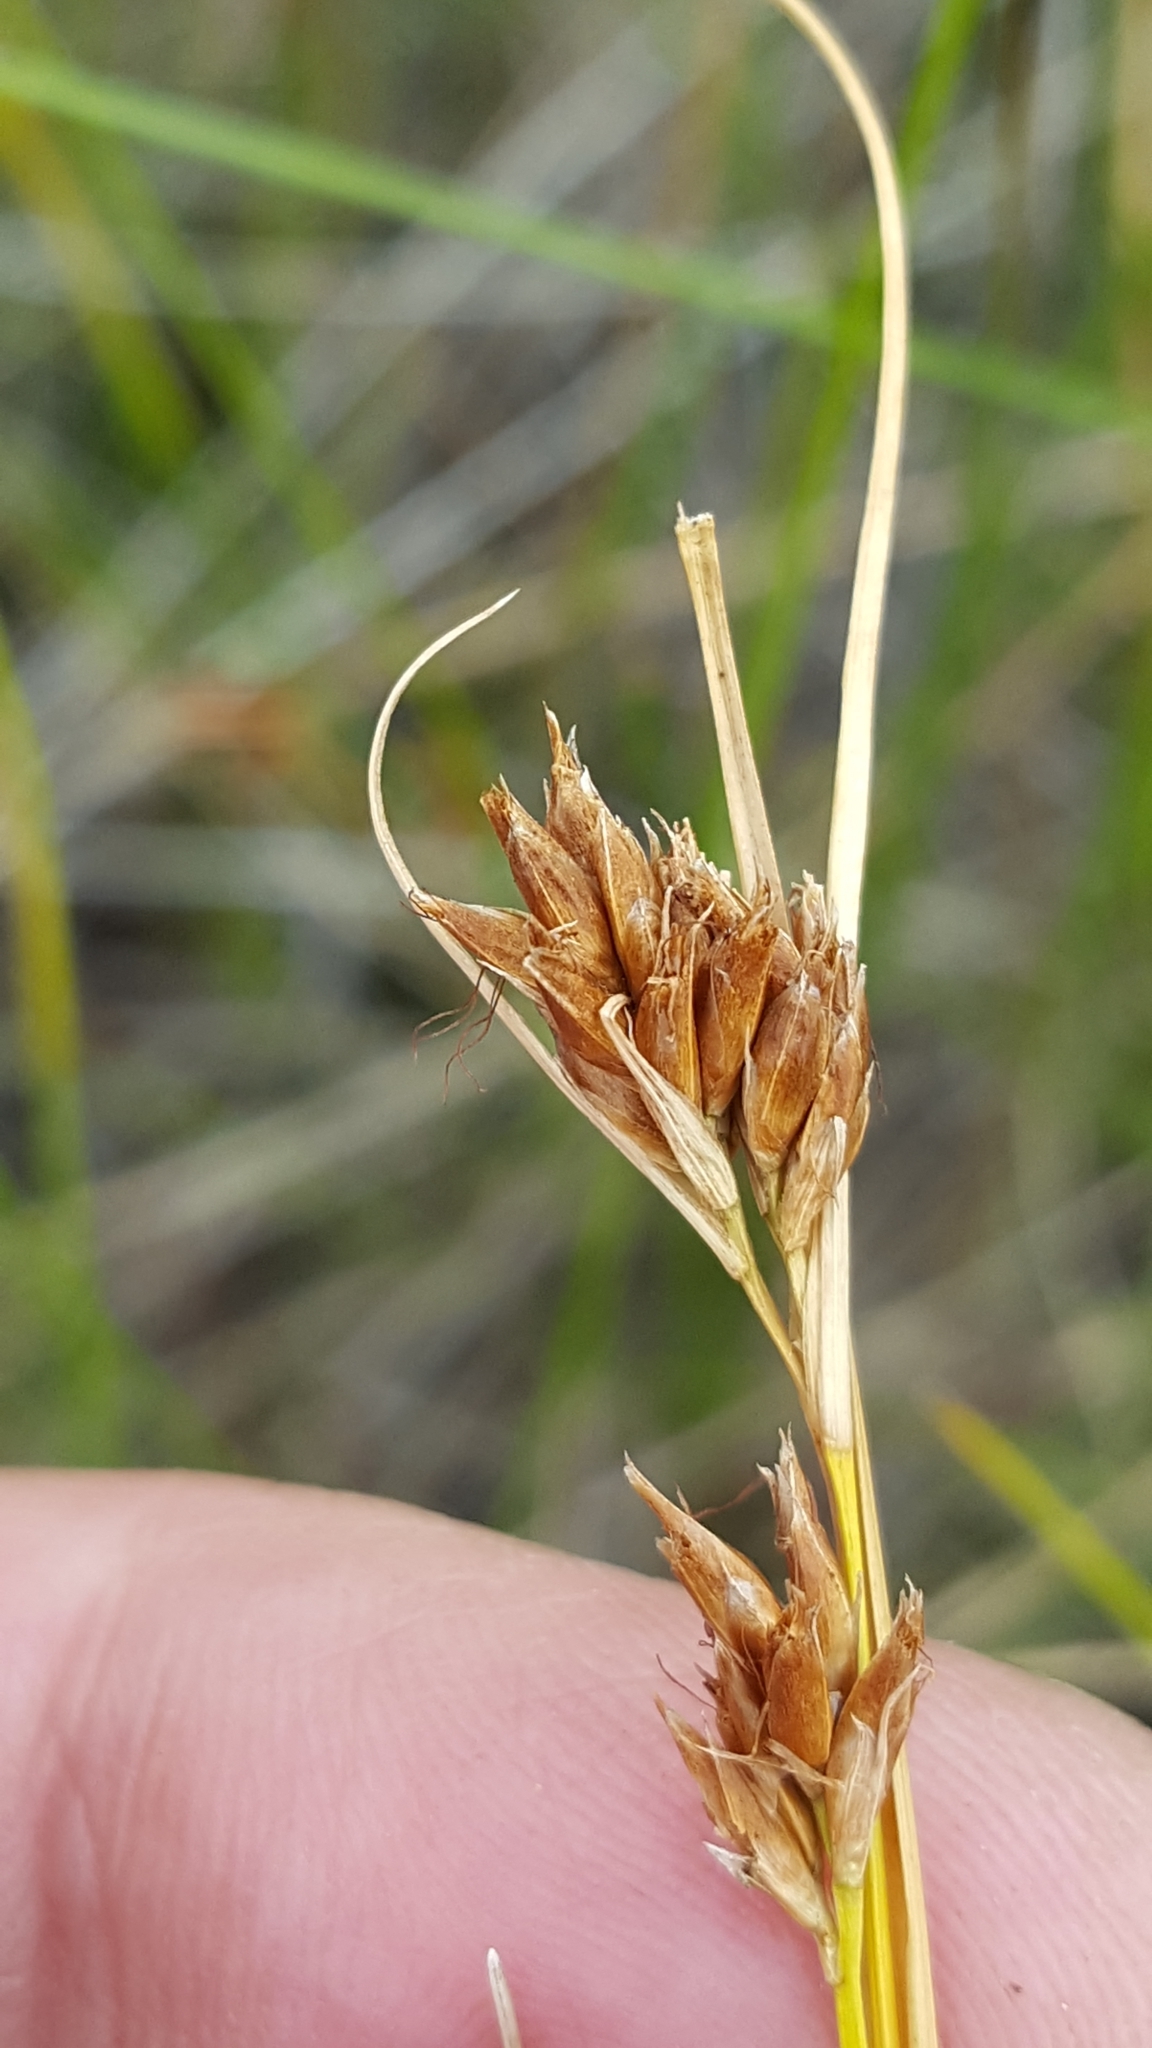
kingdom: Plantae
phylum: Tracheophyta
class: Liliopsida
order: Poales
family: Cyperaceae
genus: Rhynchospora
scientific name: Rhynchospora fusca
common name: Brown beak-sedge
